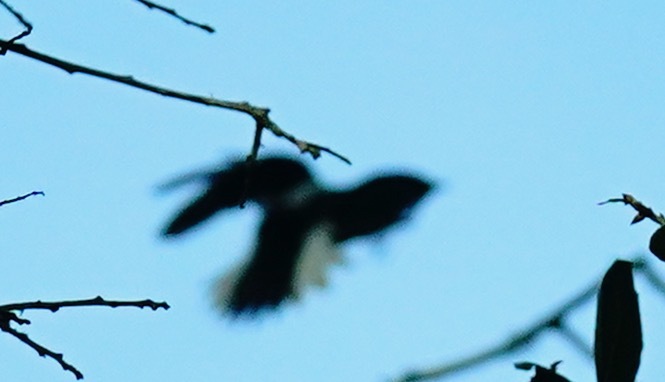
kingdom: Animalia
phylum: Chordata
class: Aves
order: Piciformes
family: Picidae
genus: Leuconotopicus
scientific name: Leuconotopicus villosus
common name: Hairy woodpecker
